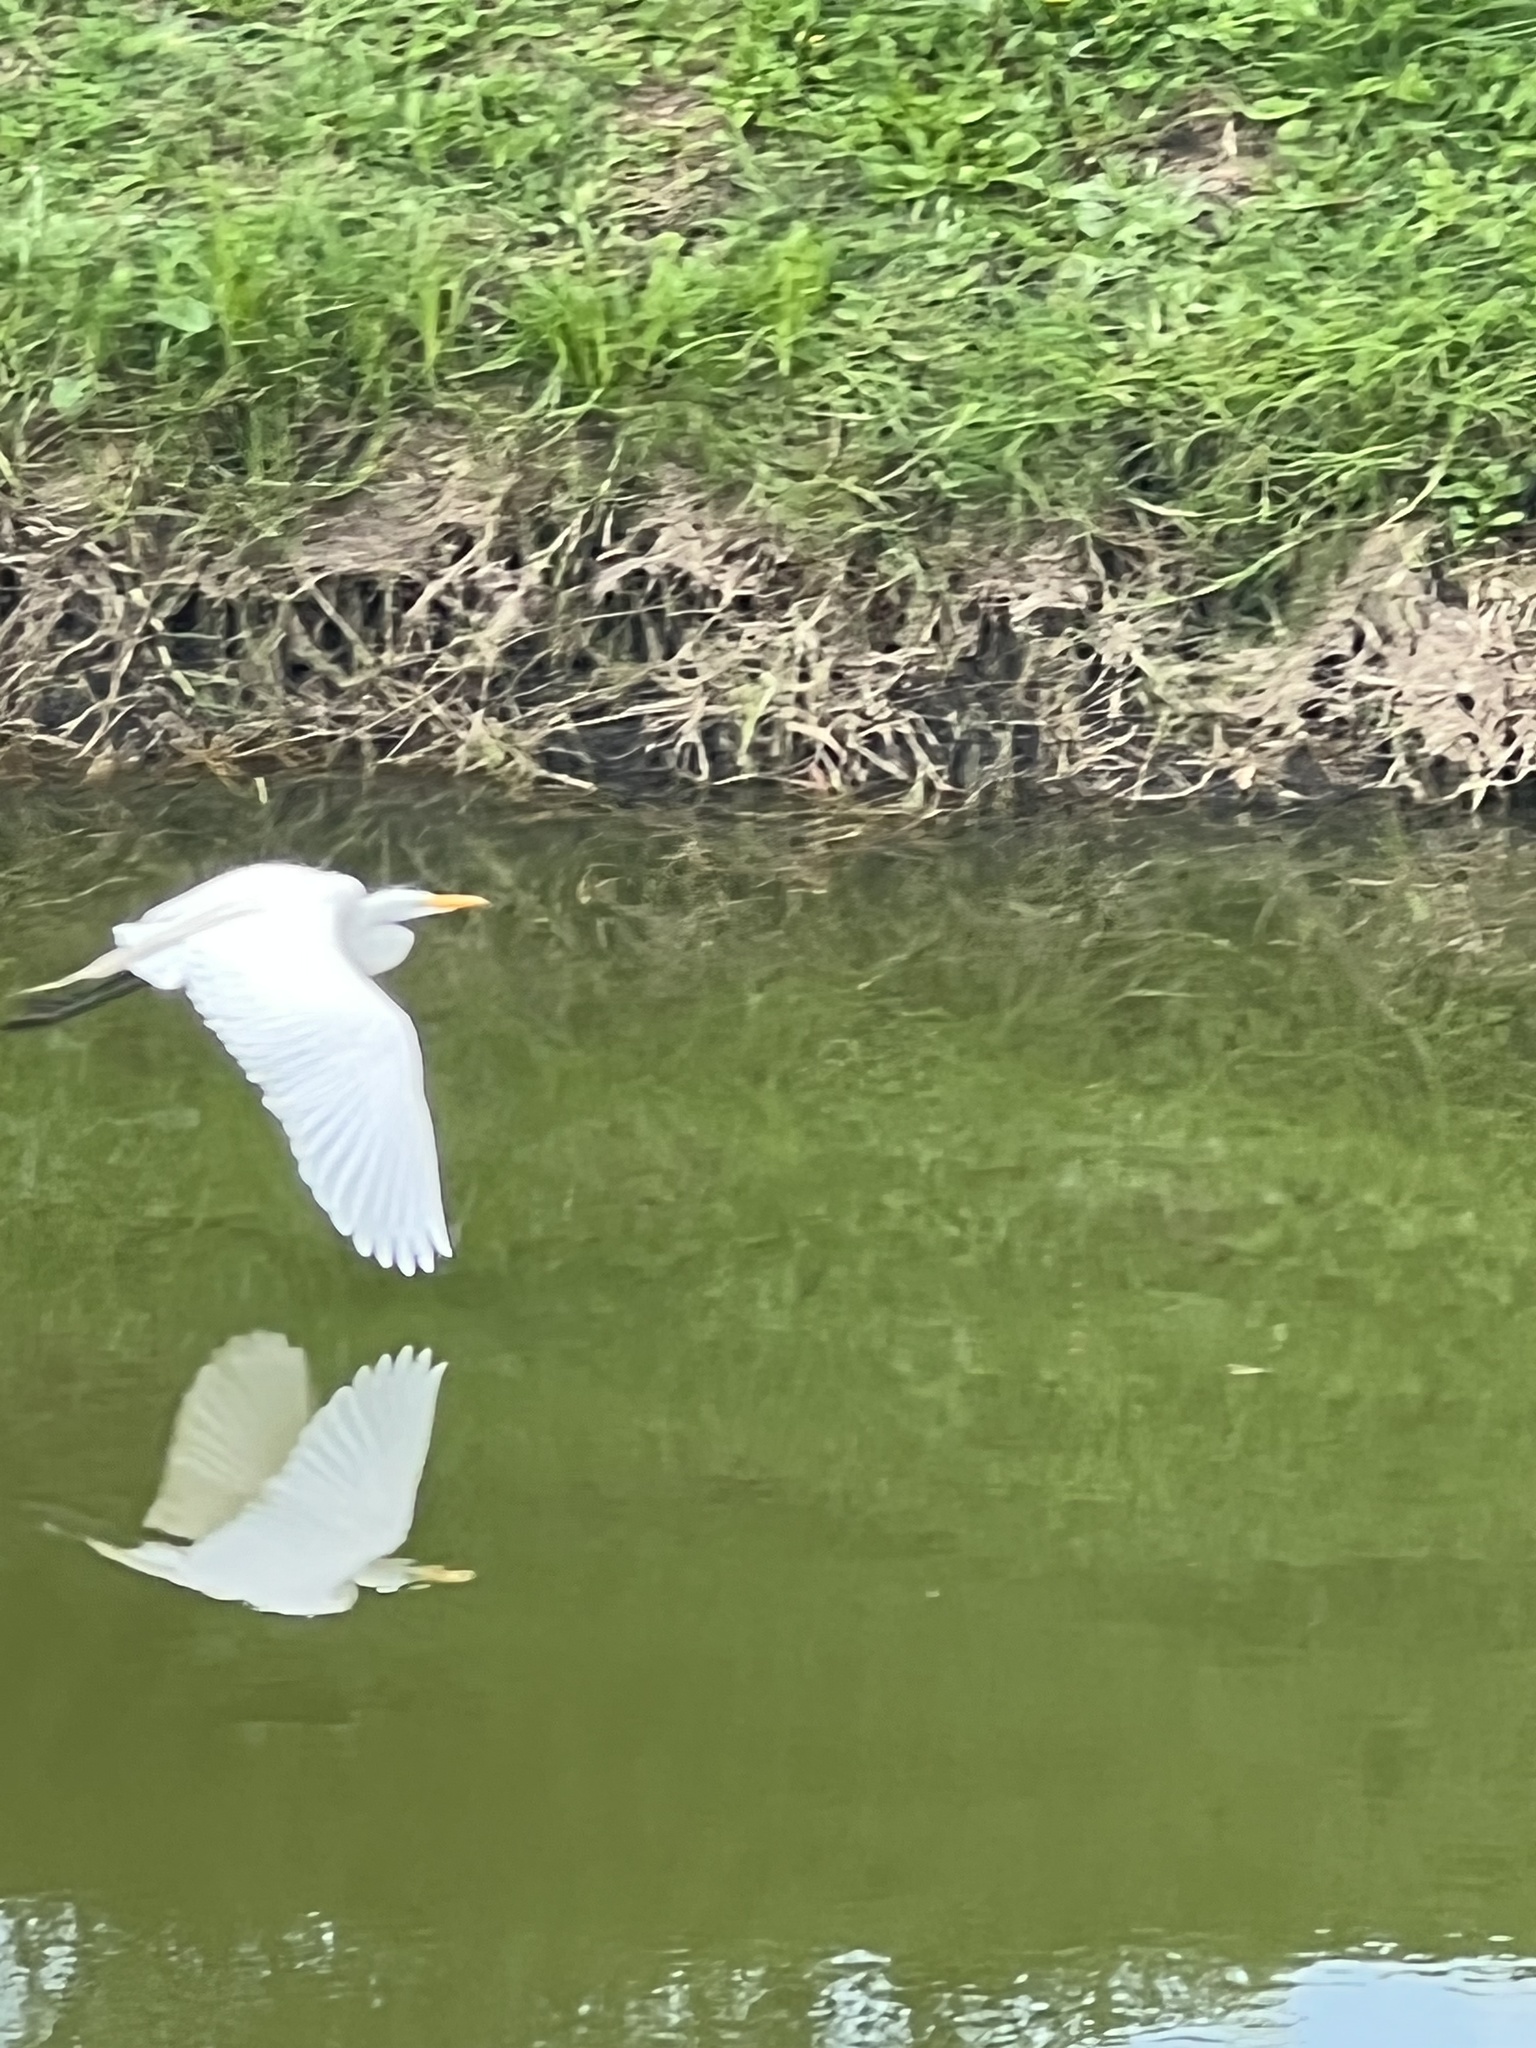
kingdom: Animalia
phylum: Chordata
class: Aves
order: Pelecaniformes
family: Ardeidae
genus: Ardea
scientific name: Ardea alba
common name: Great egret
